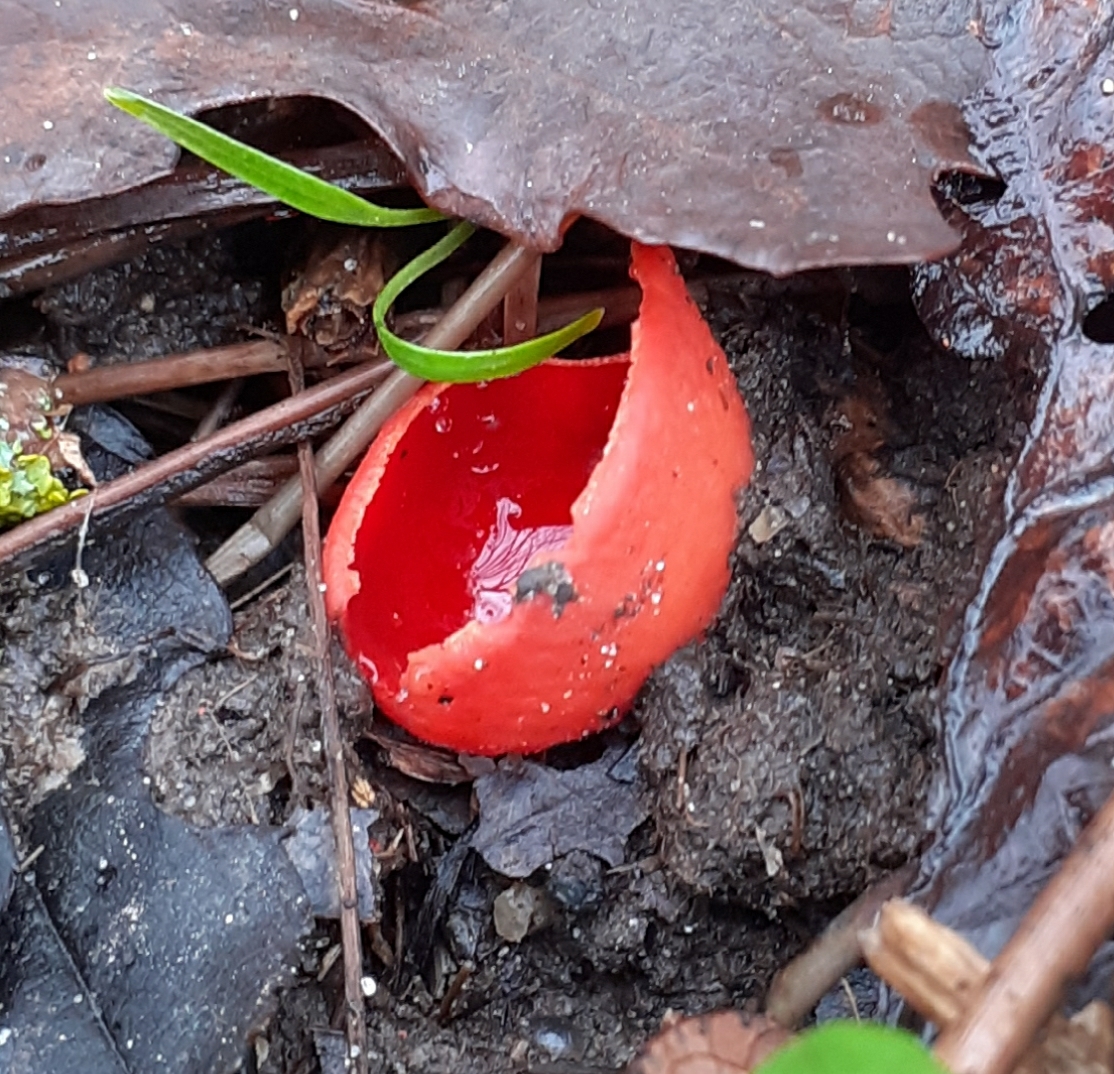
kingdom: Fungi
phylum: Ascomycota
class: Pezizomycetes
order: Pezizales
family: Sarcoscyphaceae
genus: Sarcoscypha
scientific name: Sarcoscypha
